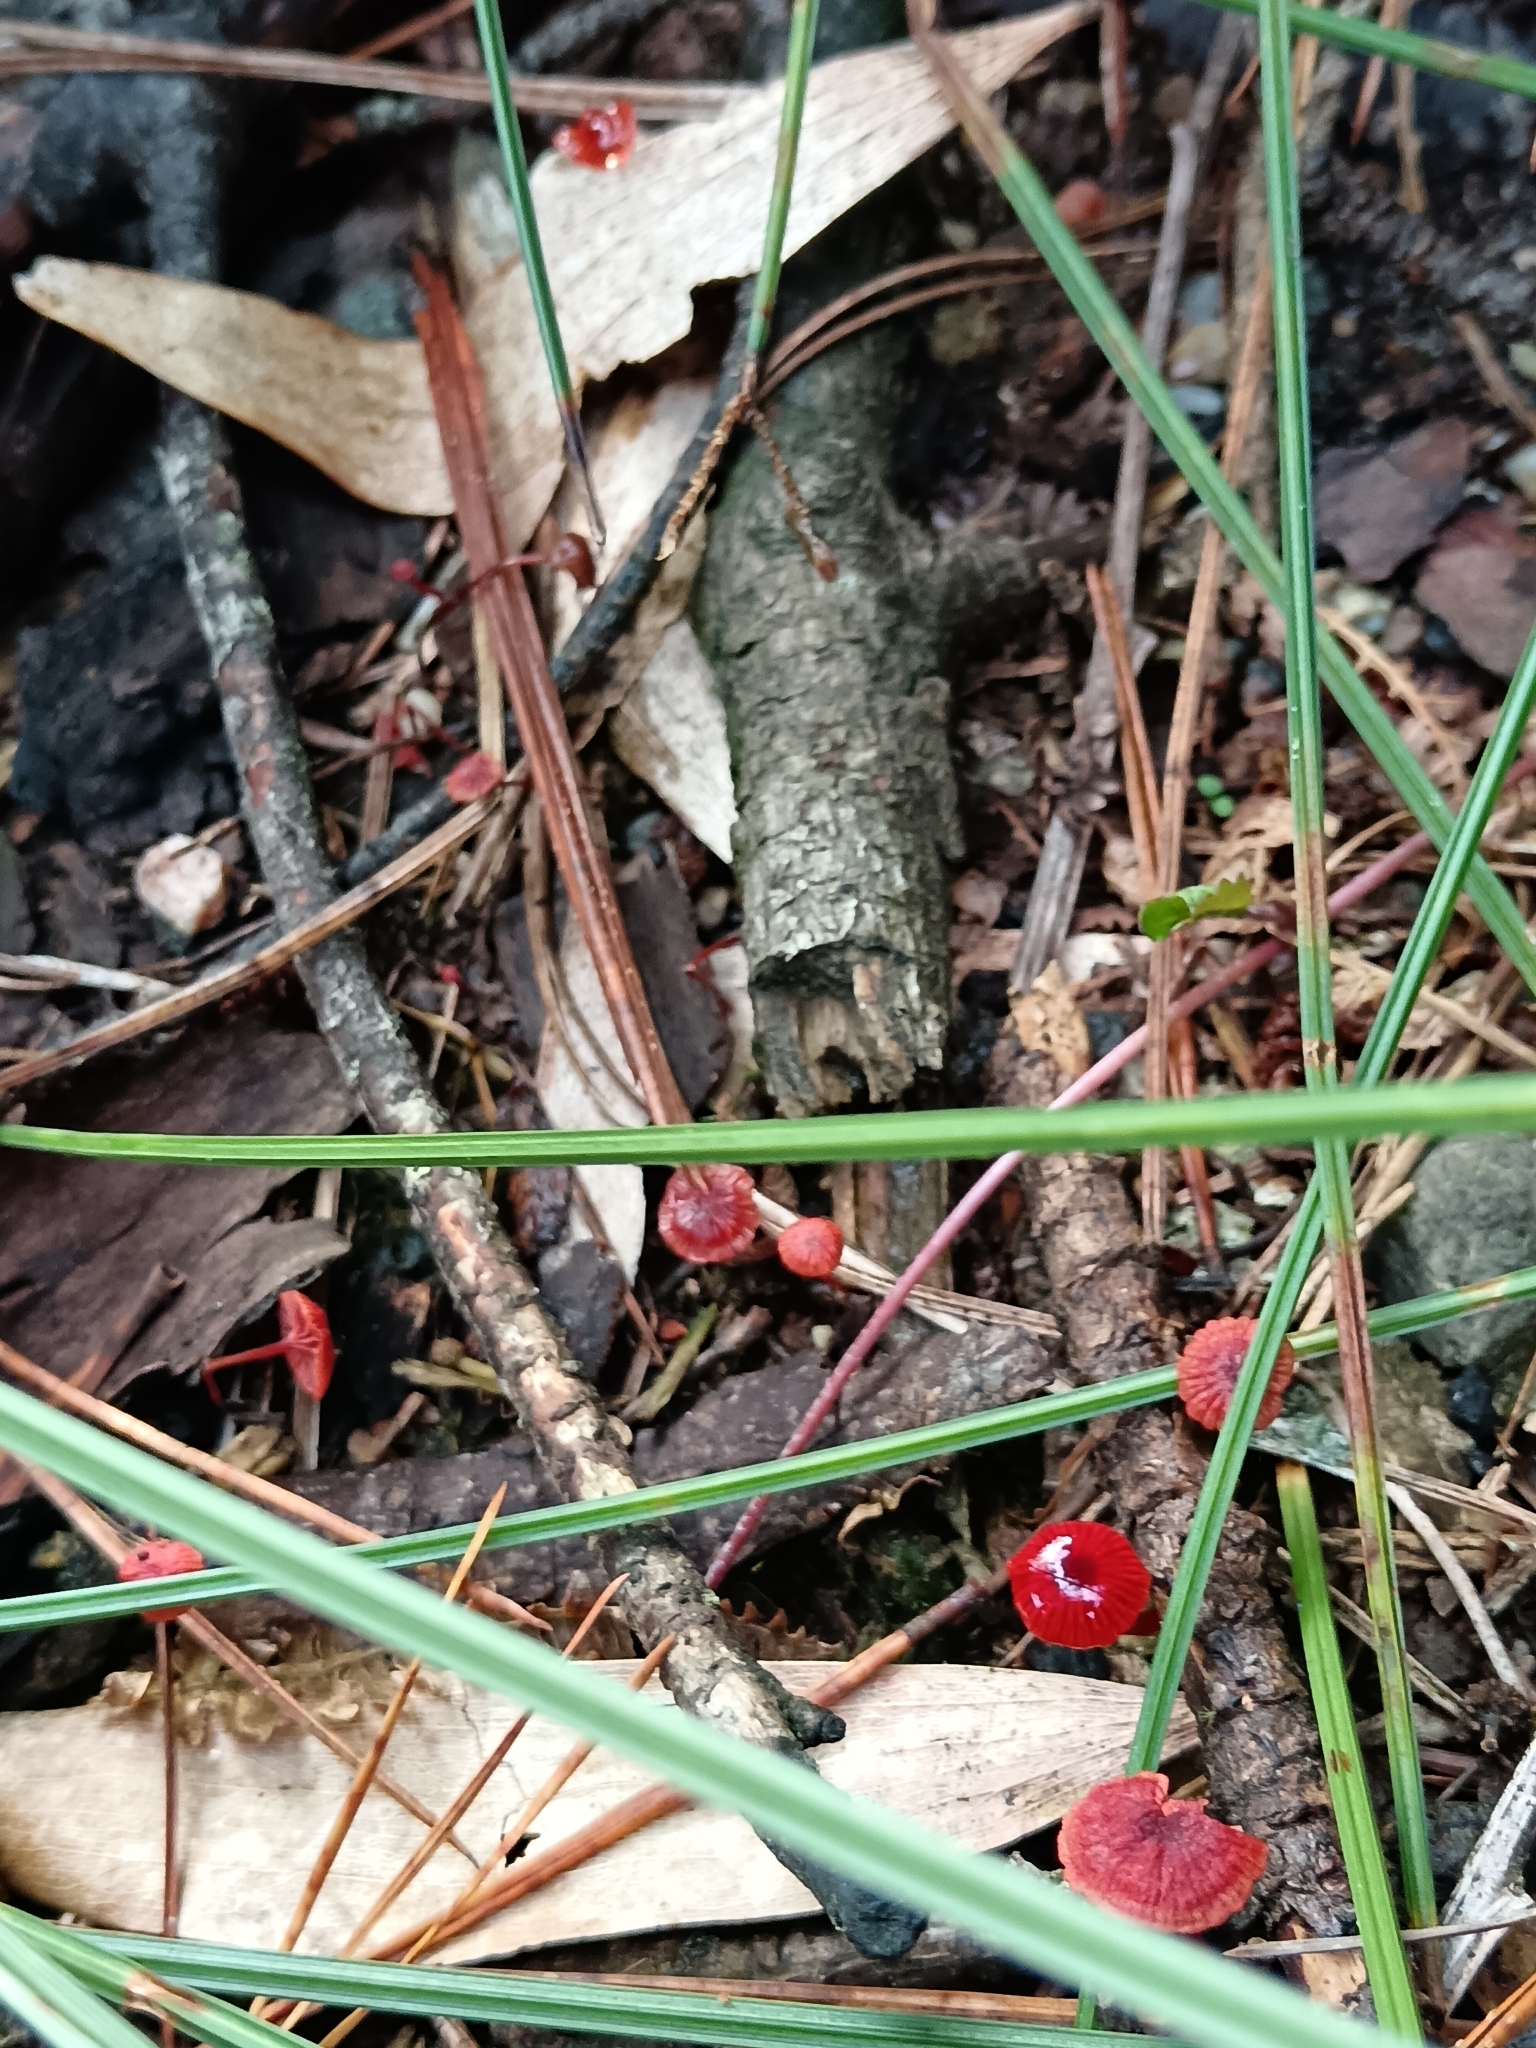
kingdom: Fungi
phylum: Basidiomycota
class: Agaricomycetes
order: Agaricales
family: Mycenaceae
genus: Cruentomycena
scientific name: Cruentomycena viscidocruenta
